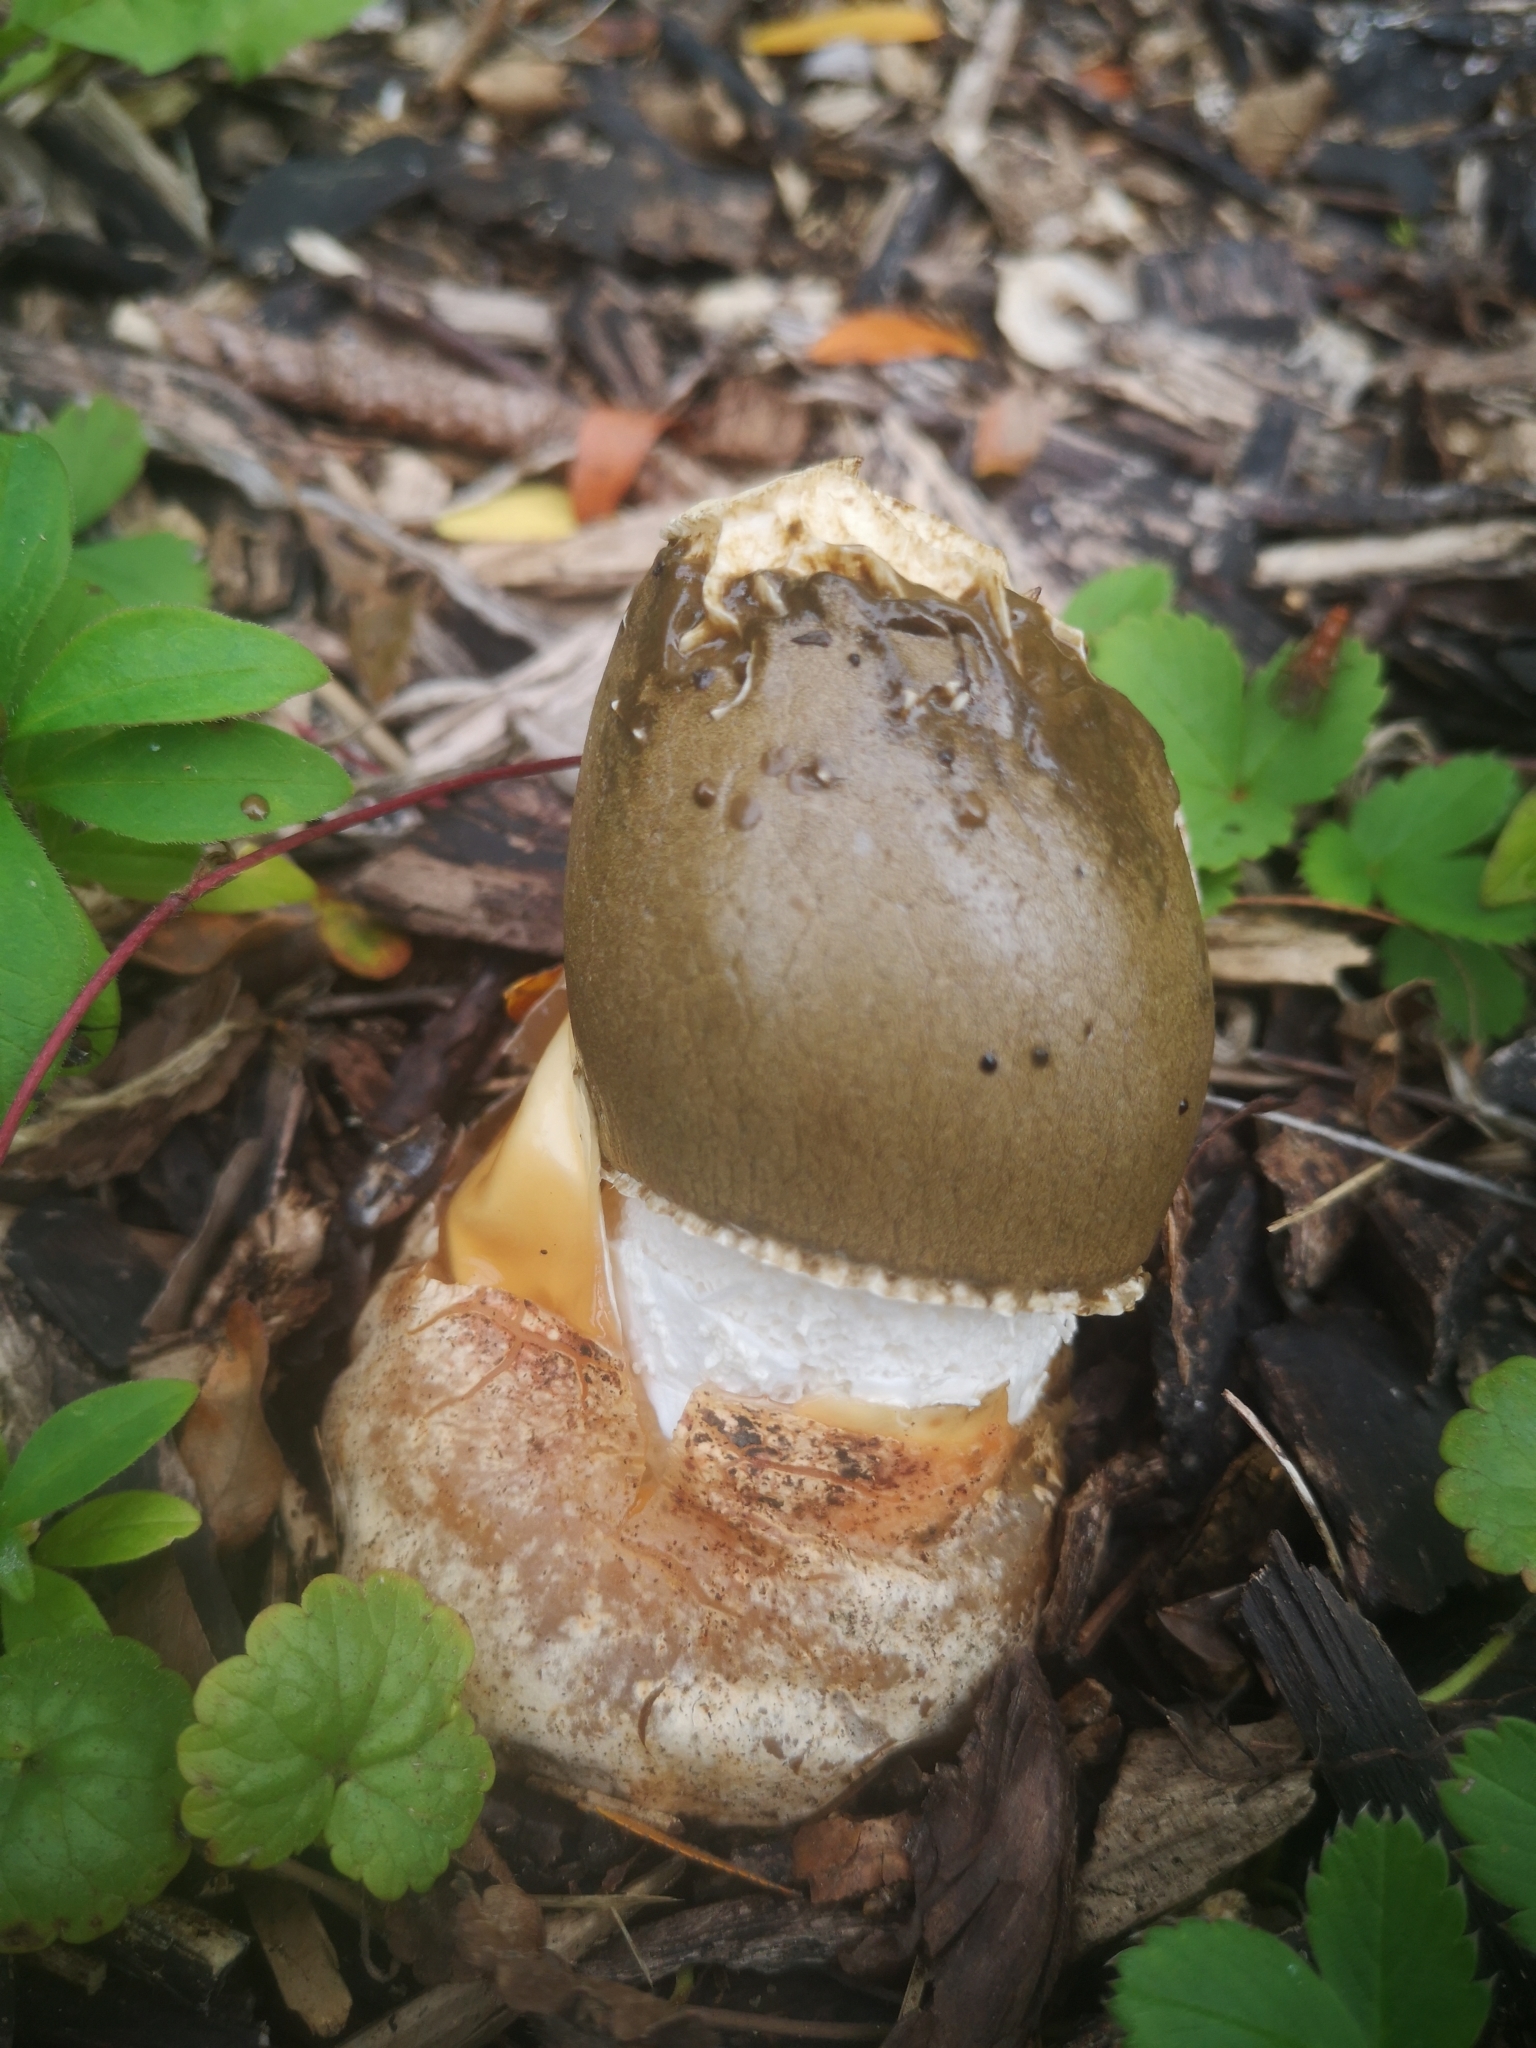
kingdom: Fungi
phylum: Basidiomycota
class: Agaricomycetes
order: Phallales
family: Phallaceae
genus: Phallus
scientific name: Phallus indusiatus
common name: Bridal veil stinkhorn
